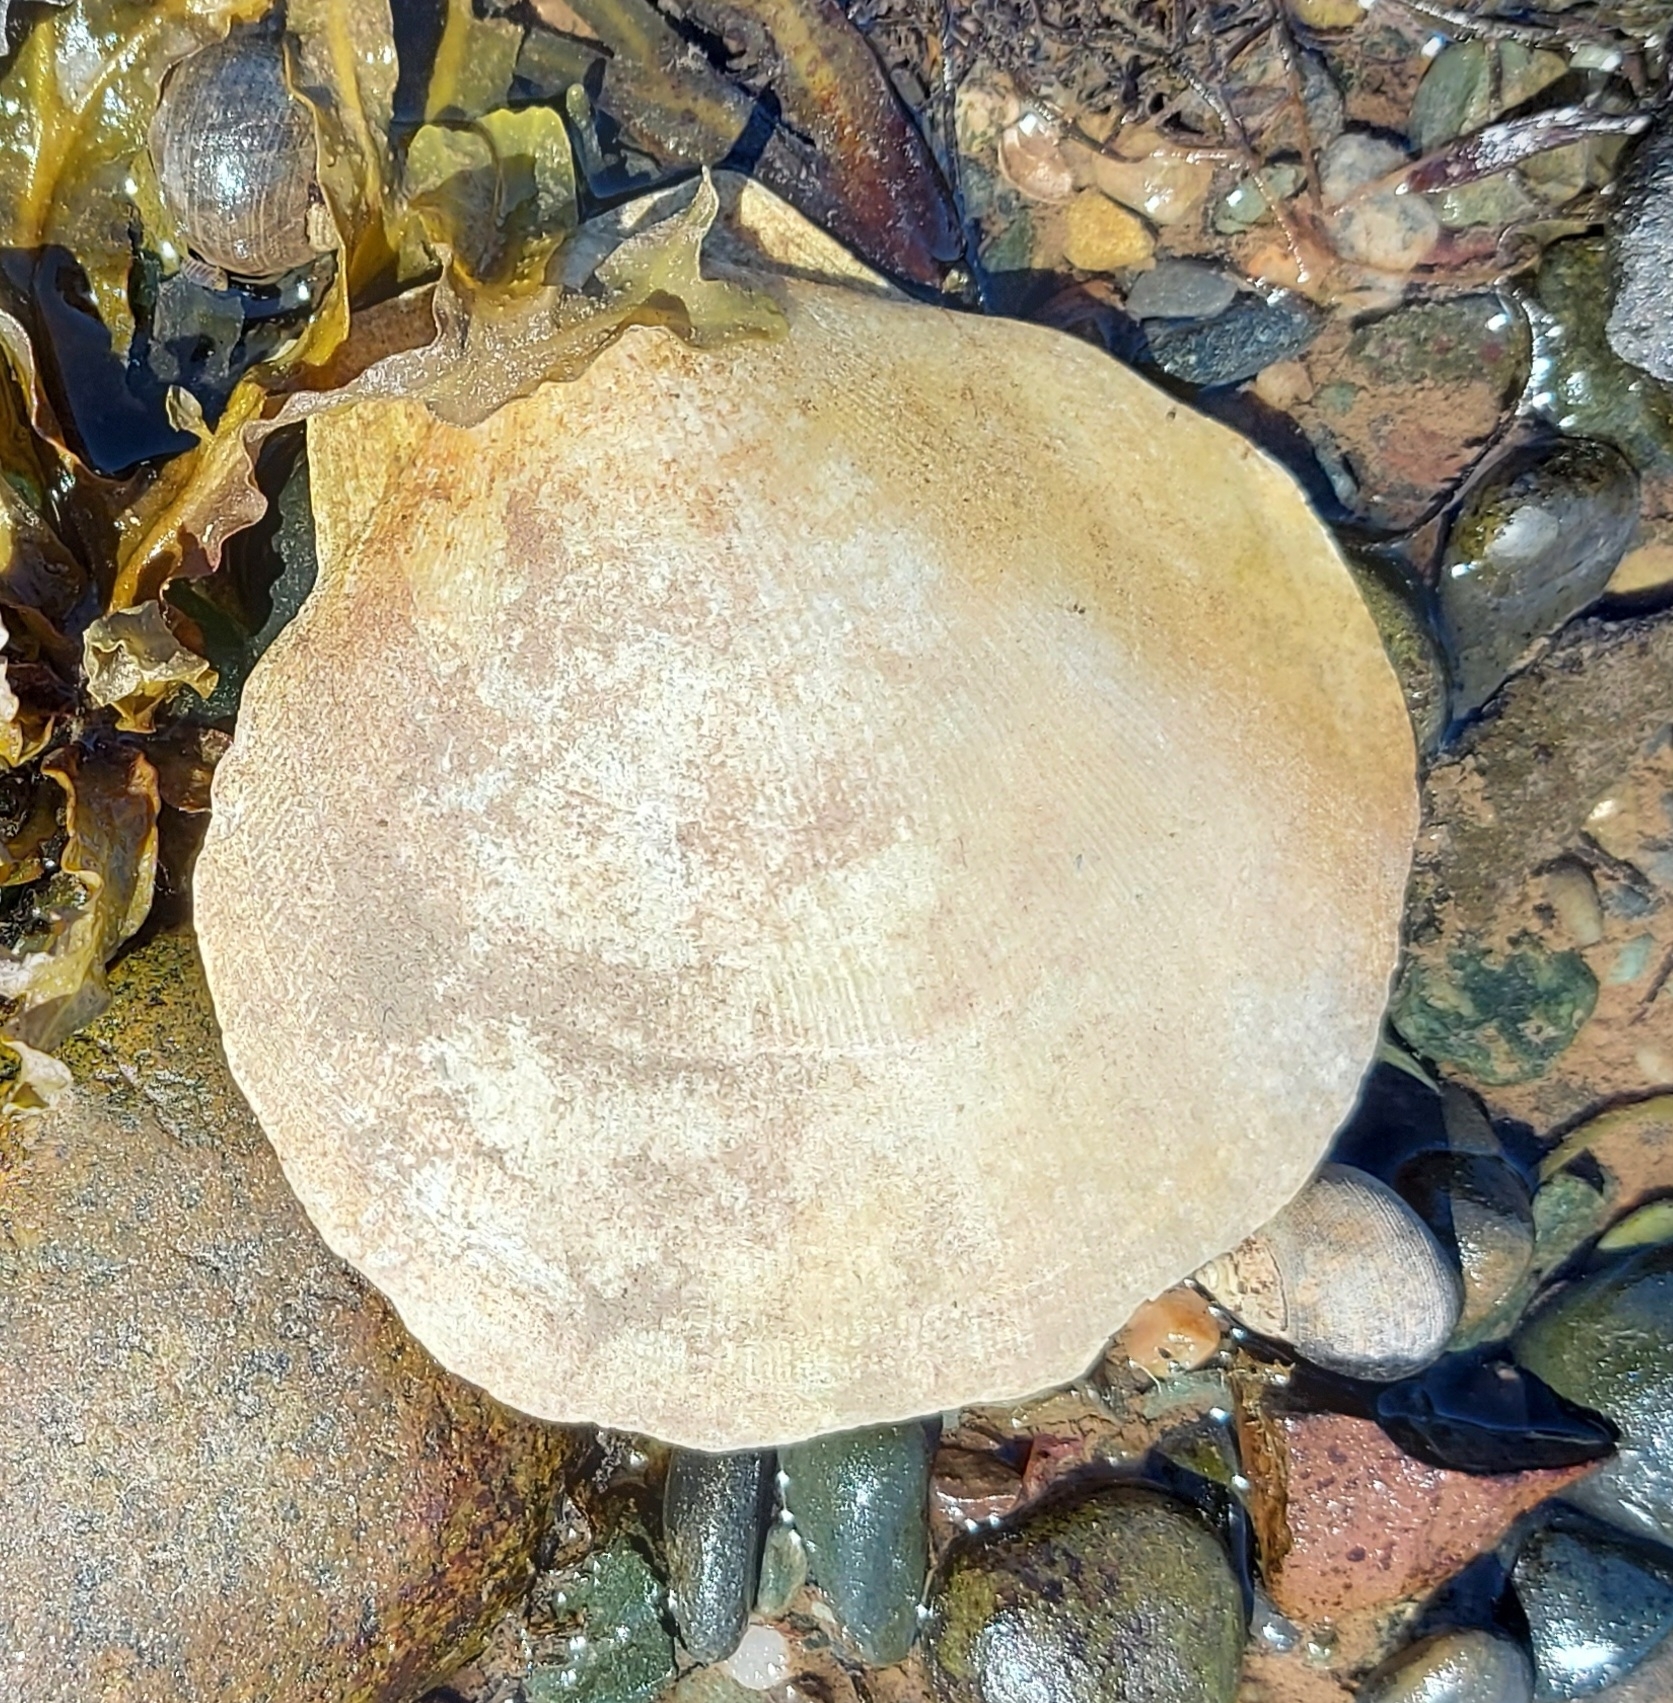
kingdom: Animalia
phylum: Mollusca
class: Bivalvia
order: Pectinida
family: Pectinidae
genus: Placopecten
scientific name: Placopecten magellanicus
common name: American sea scallop
